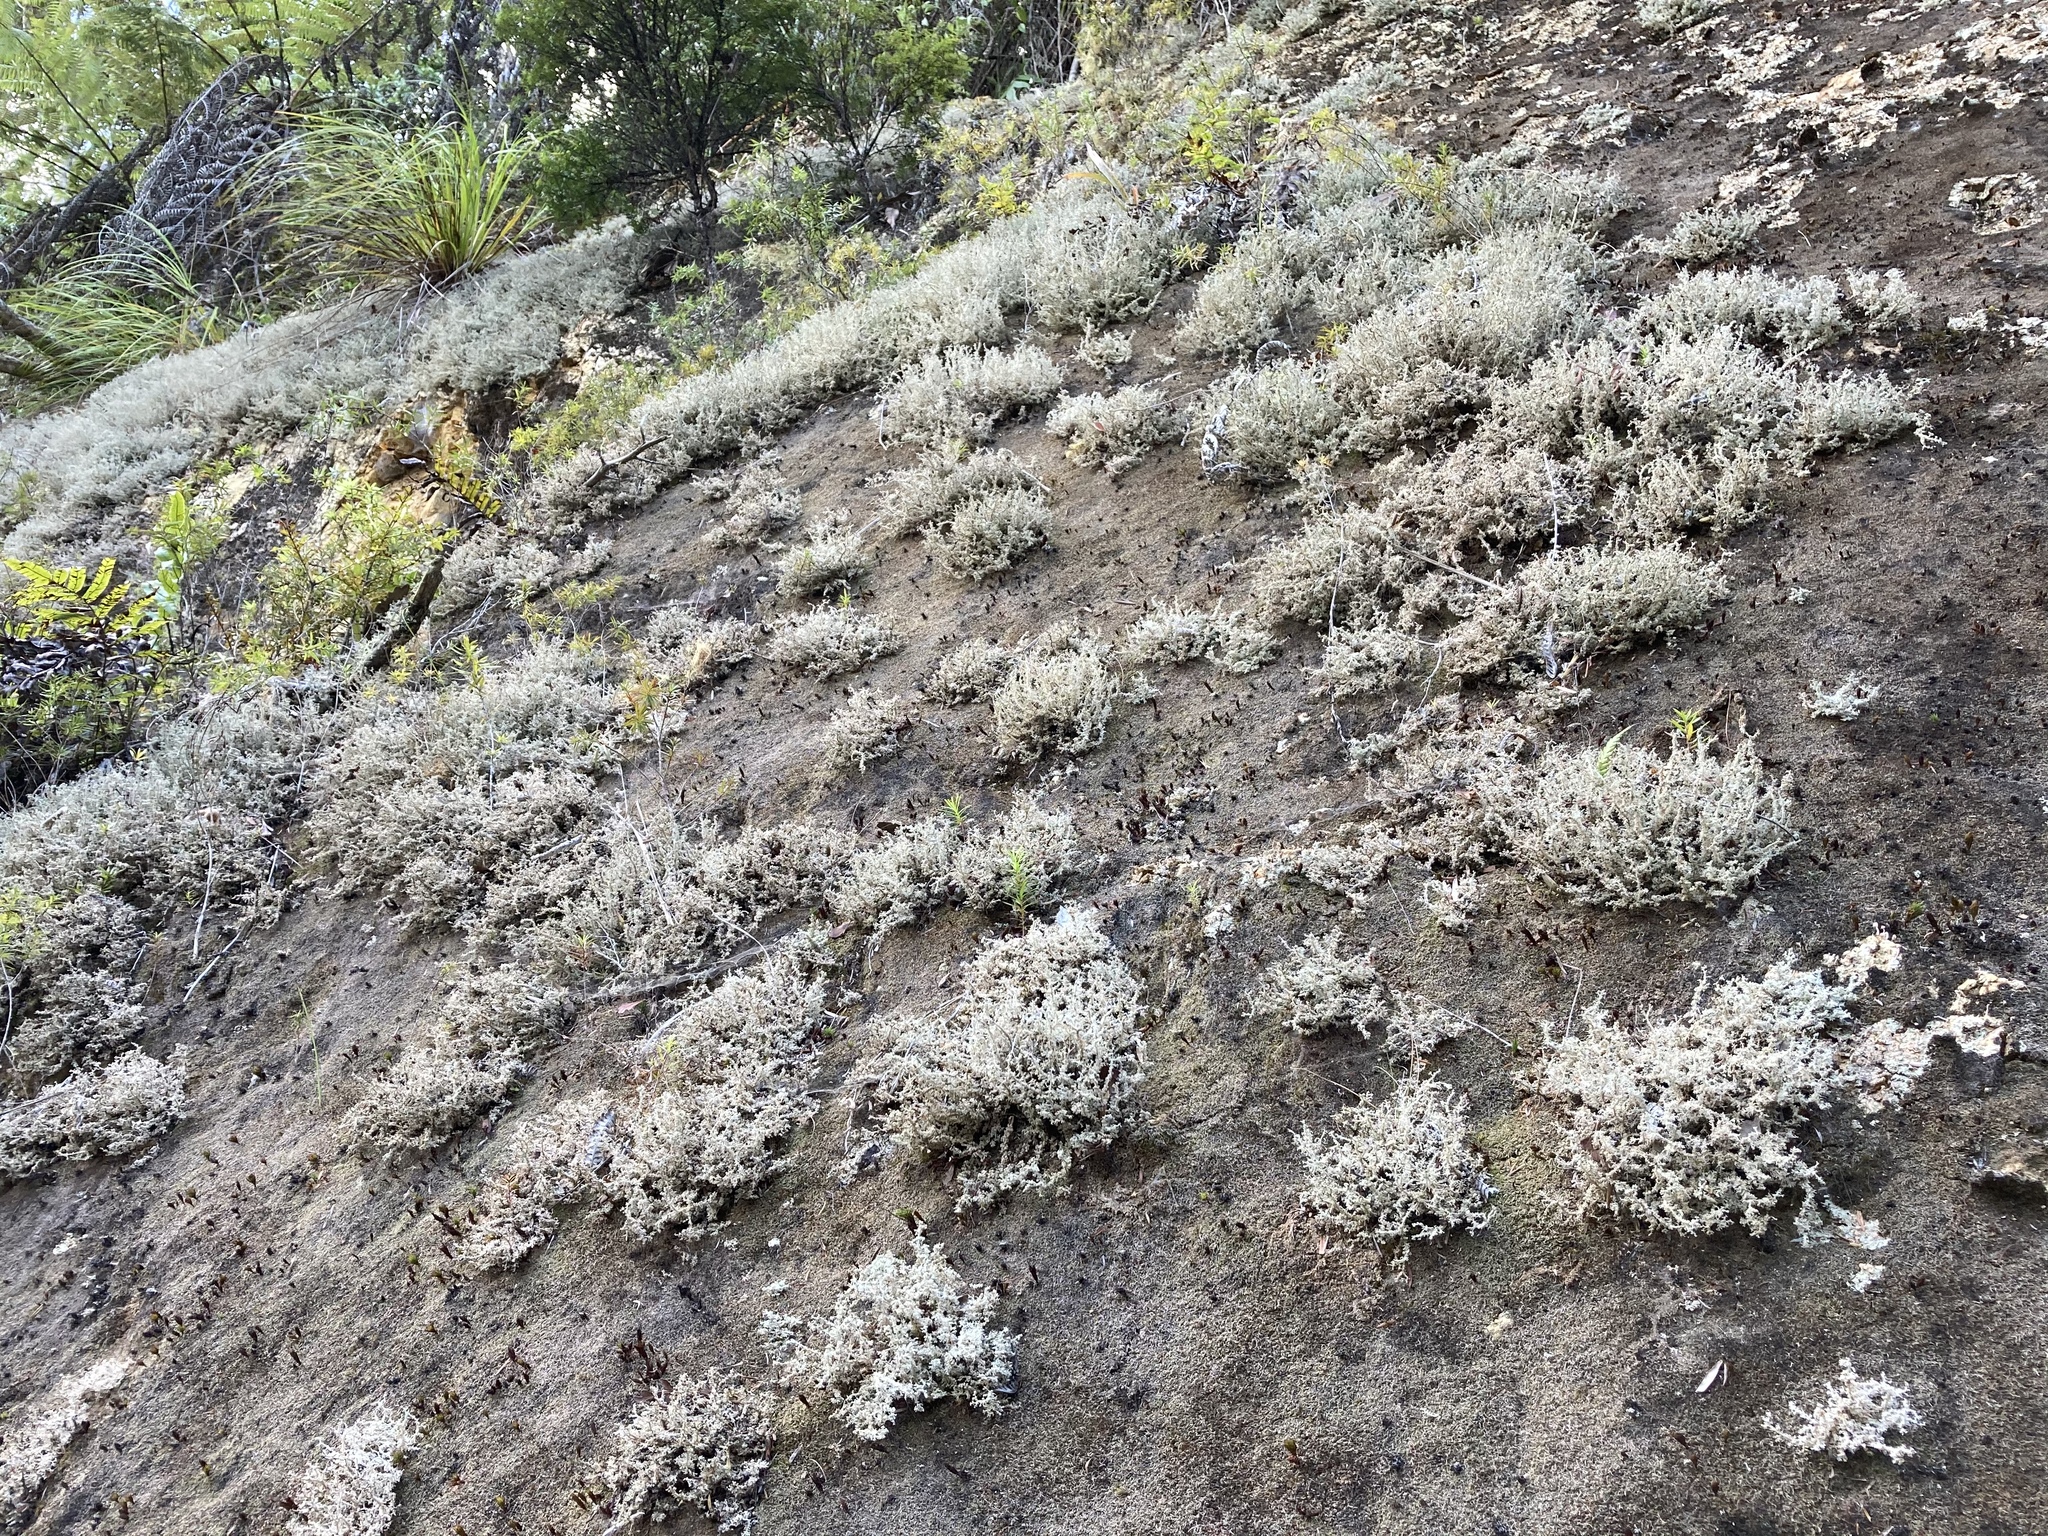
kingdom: Fungi
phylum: Ascomycota
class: Lecanoromycetes
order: Lecanorales
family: Stereocaulaceae
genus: Stereocaulon
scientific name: Stereocaulon ramulosum
